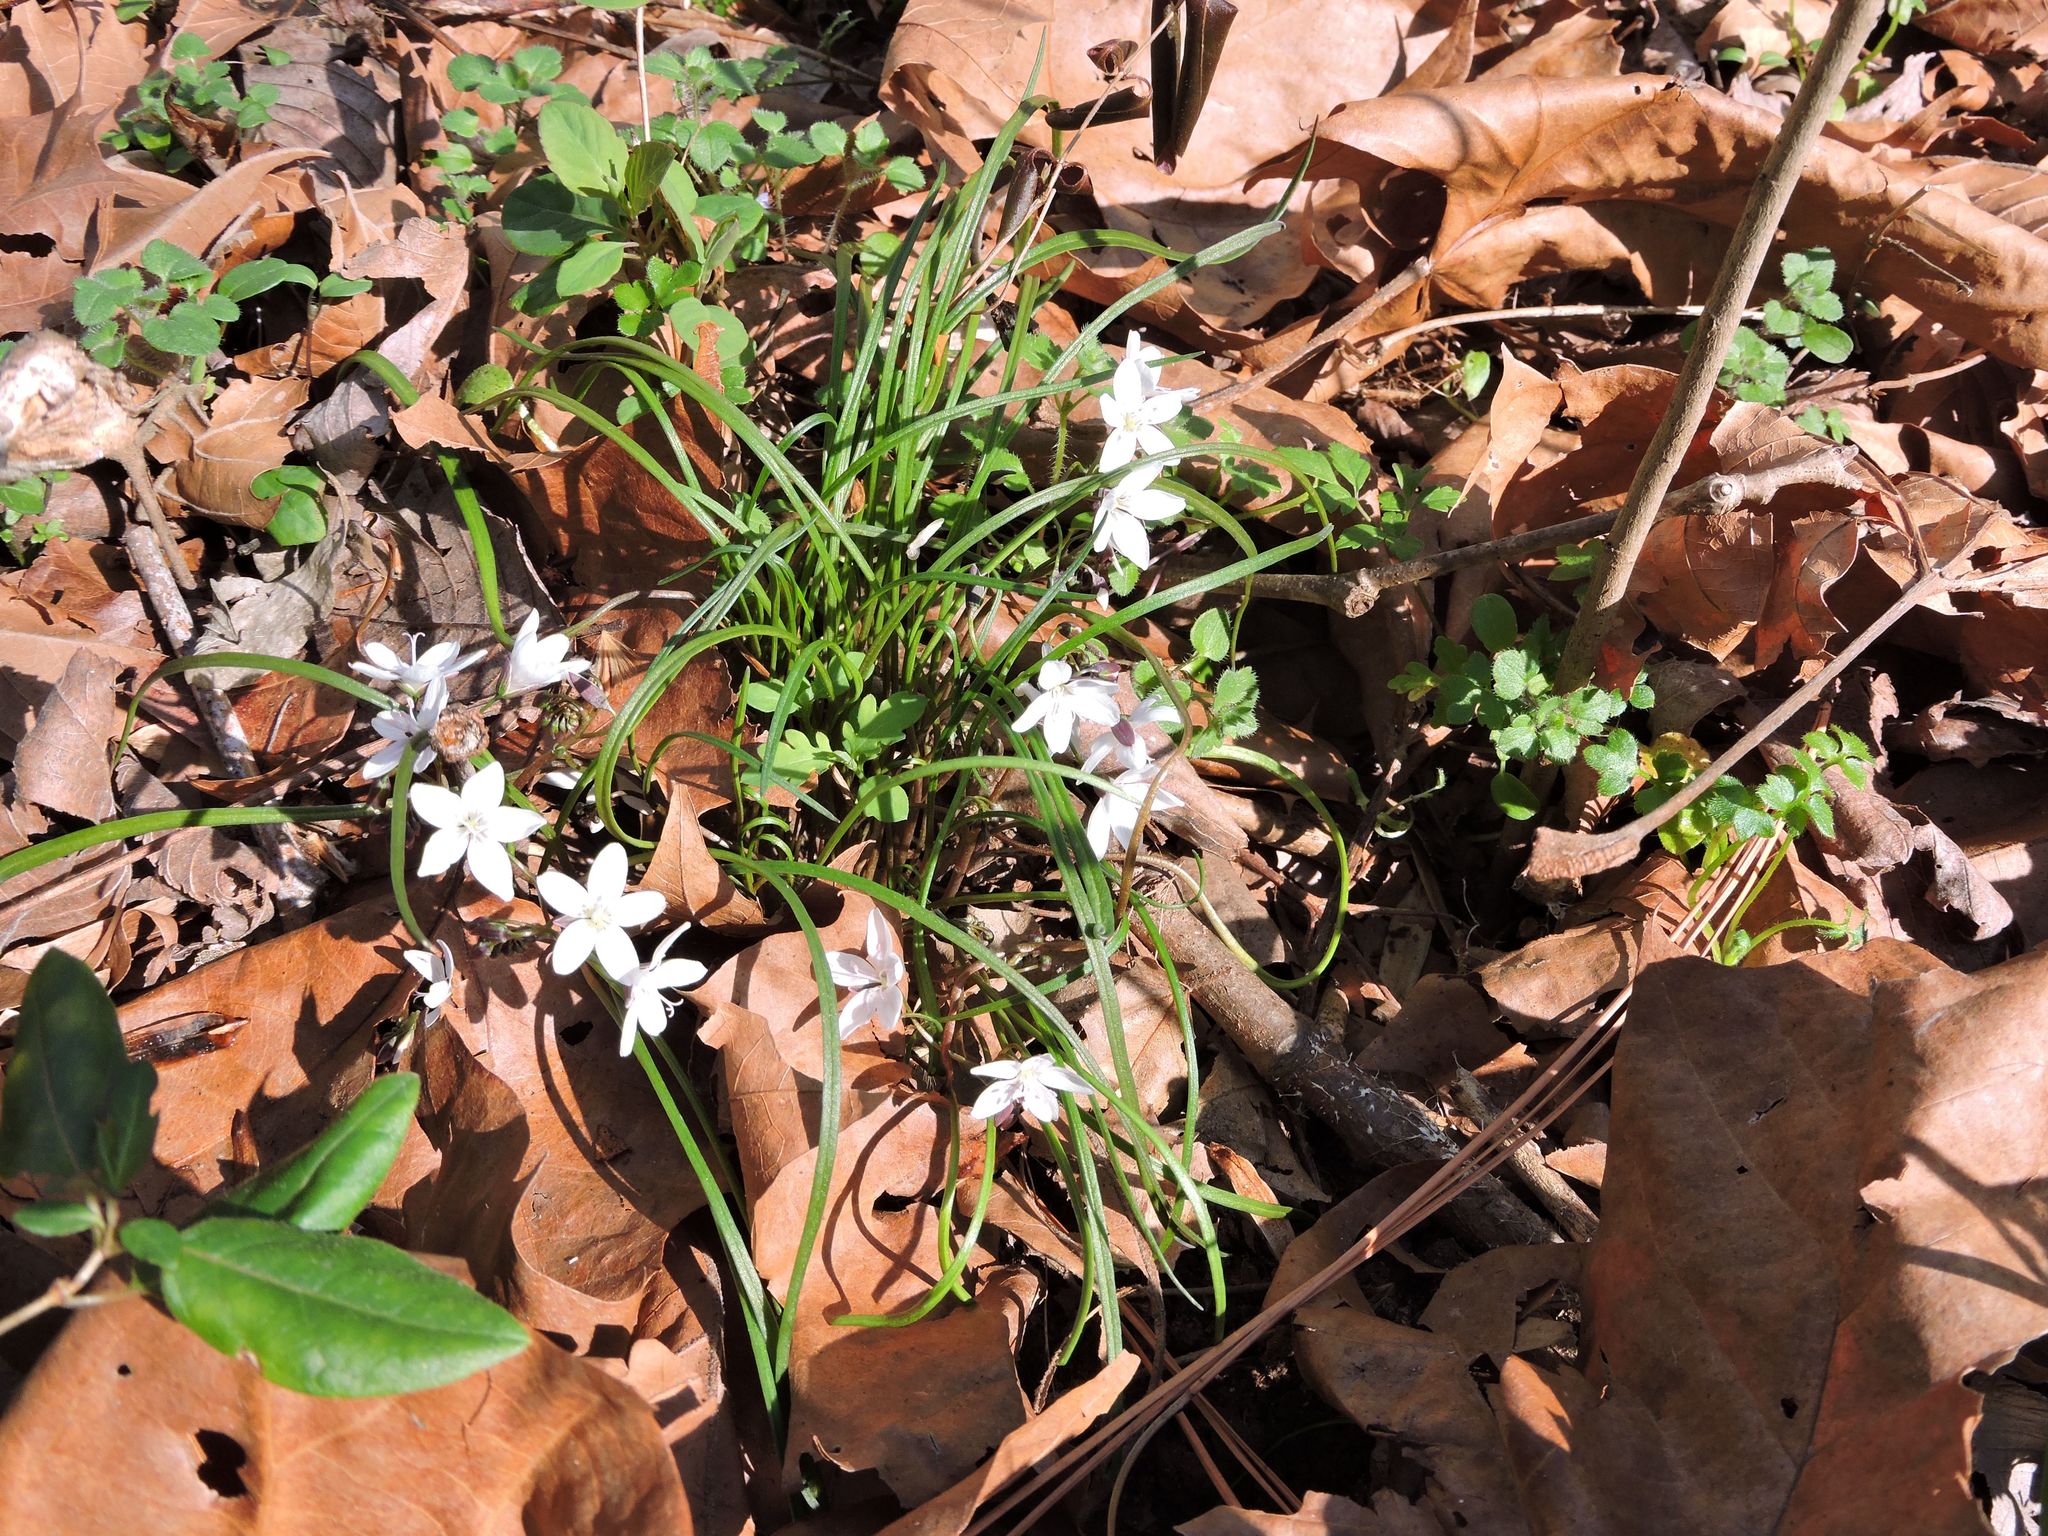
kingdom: Plantae
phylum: Tracheophyta
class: Magnoliopsida
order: Caryophyllales
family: Montiaceae
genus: Claytonia
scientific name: Claytonia virginica
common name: Virginia springbeauty
